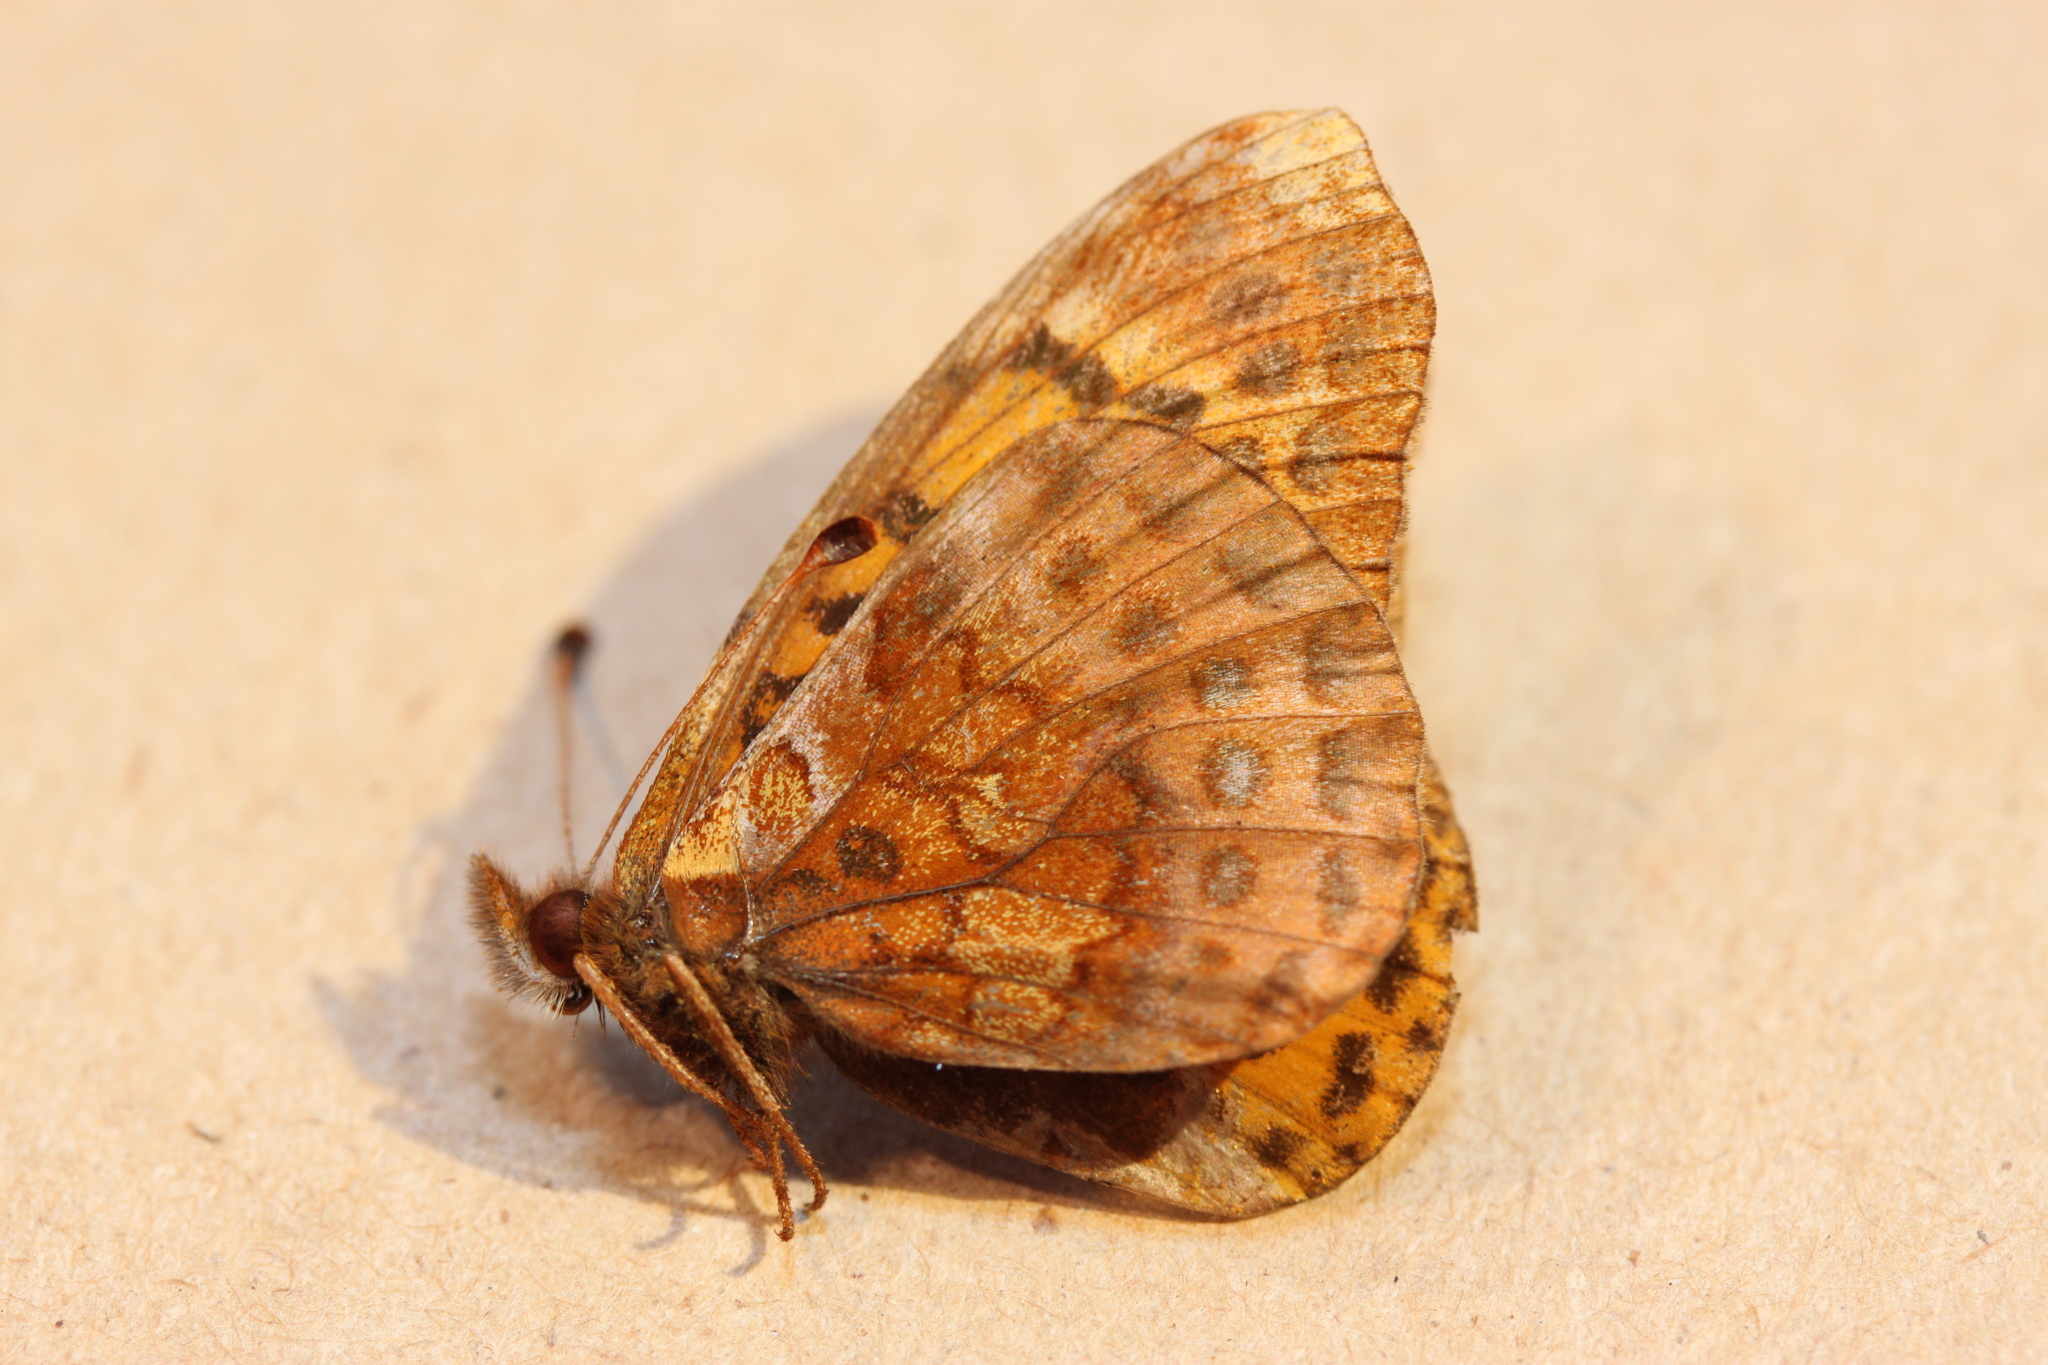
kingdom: Animalia
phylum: Arthropoda
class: Insecta
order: Lepidoptera
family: Nymphalidae
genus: Clossiana
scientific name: Clossiana toddi
